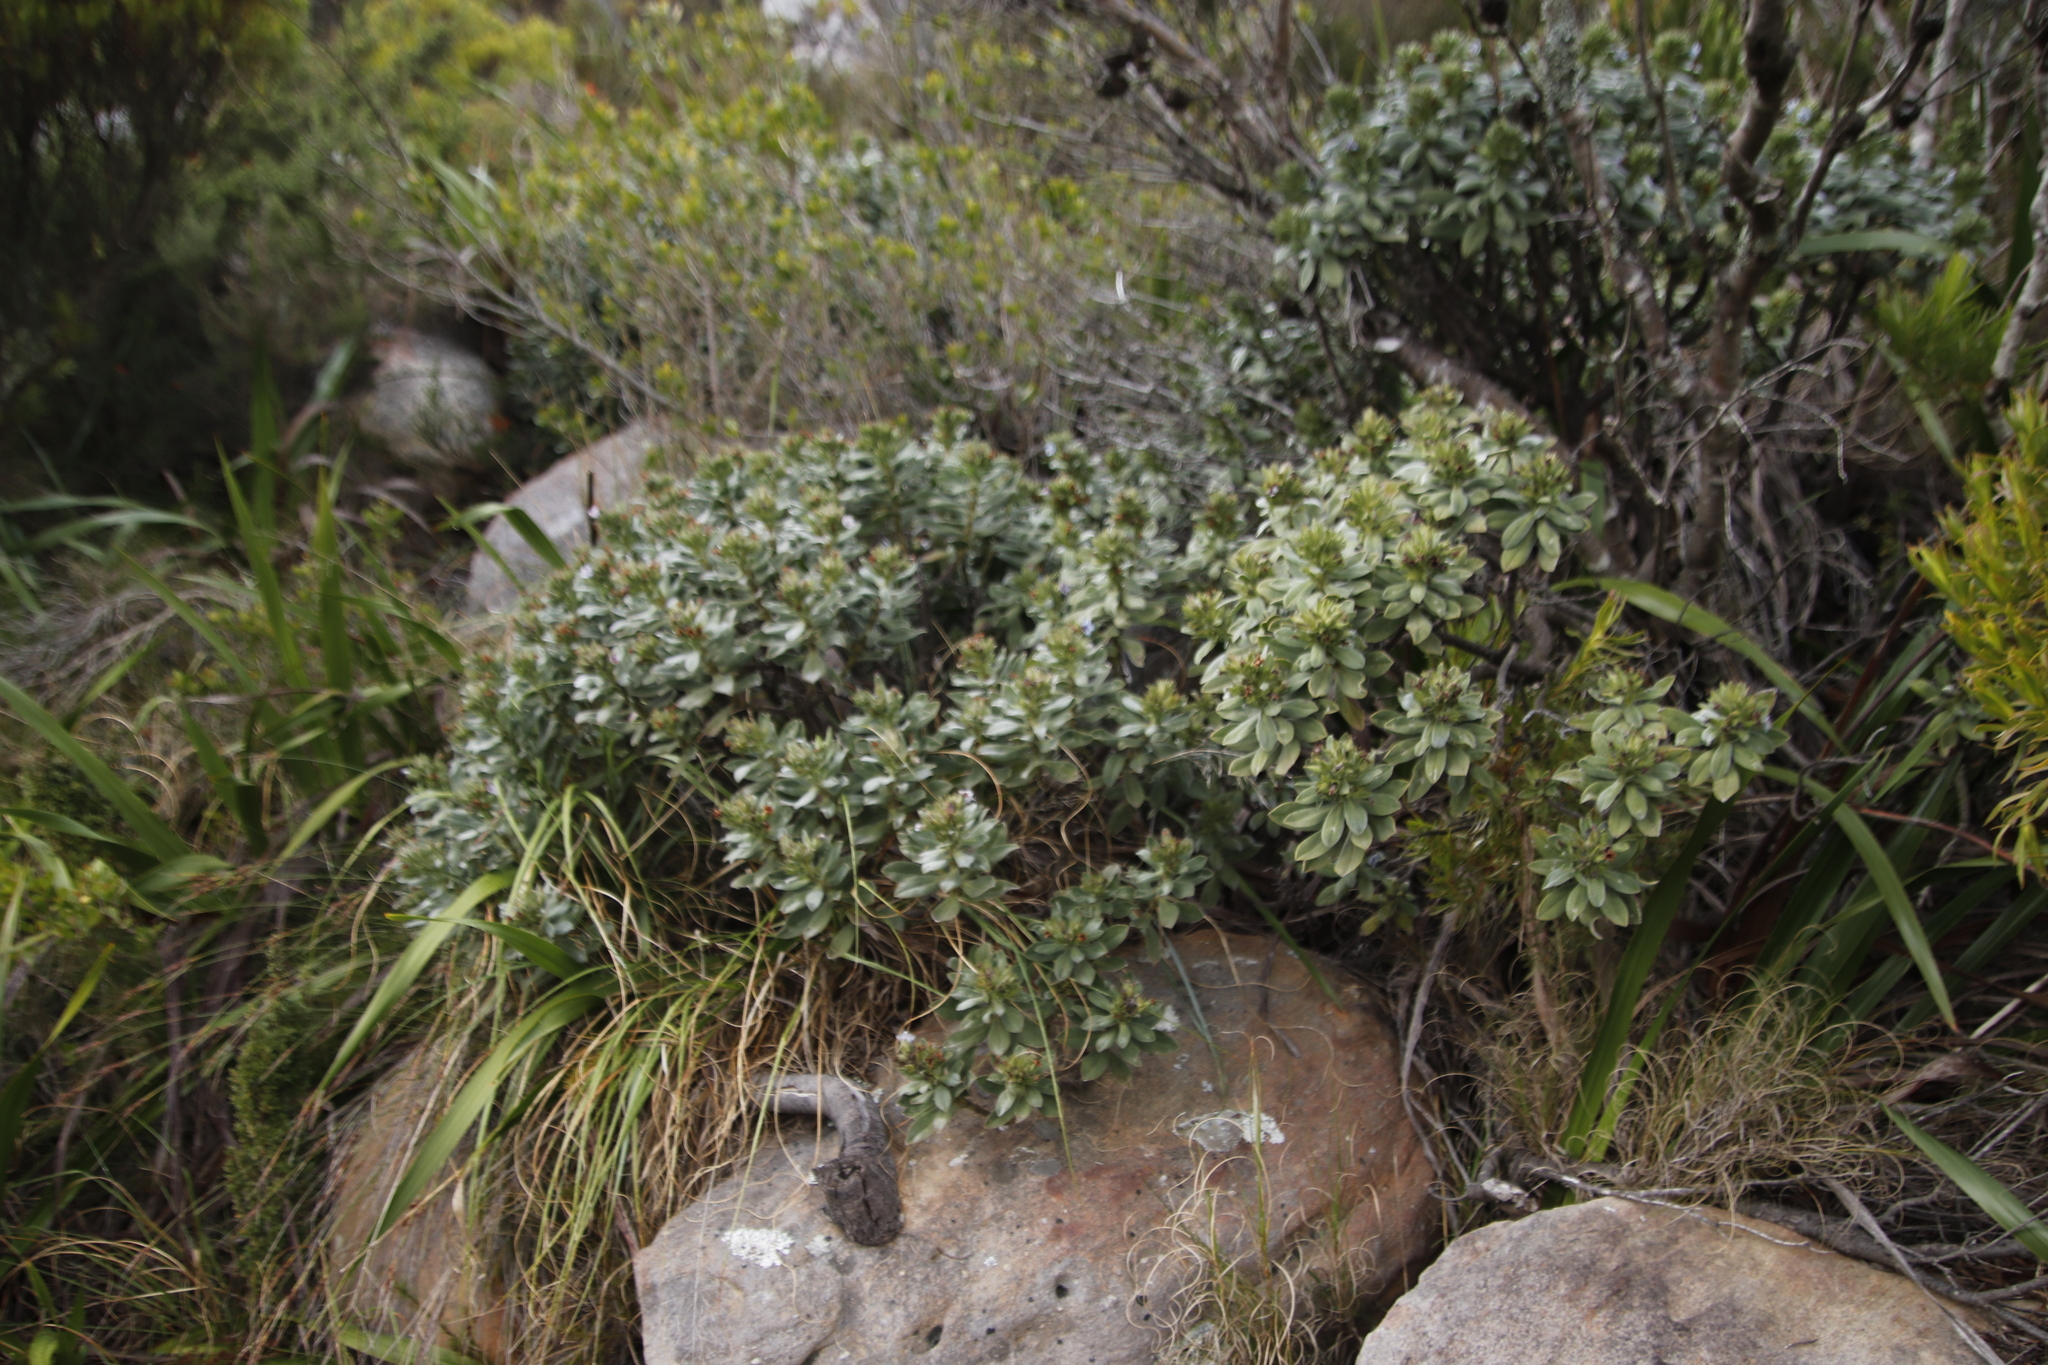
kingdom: Plantae
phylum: Tracheophyta
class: Magnoliopsida
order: Boraginales
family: Boraginaceae
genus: Lobostemon
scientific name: Lobostemon montanus
